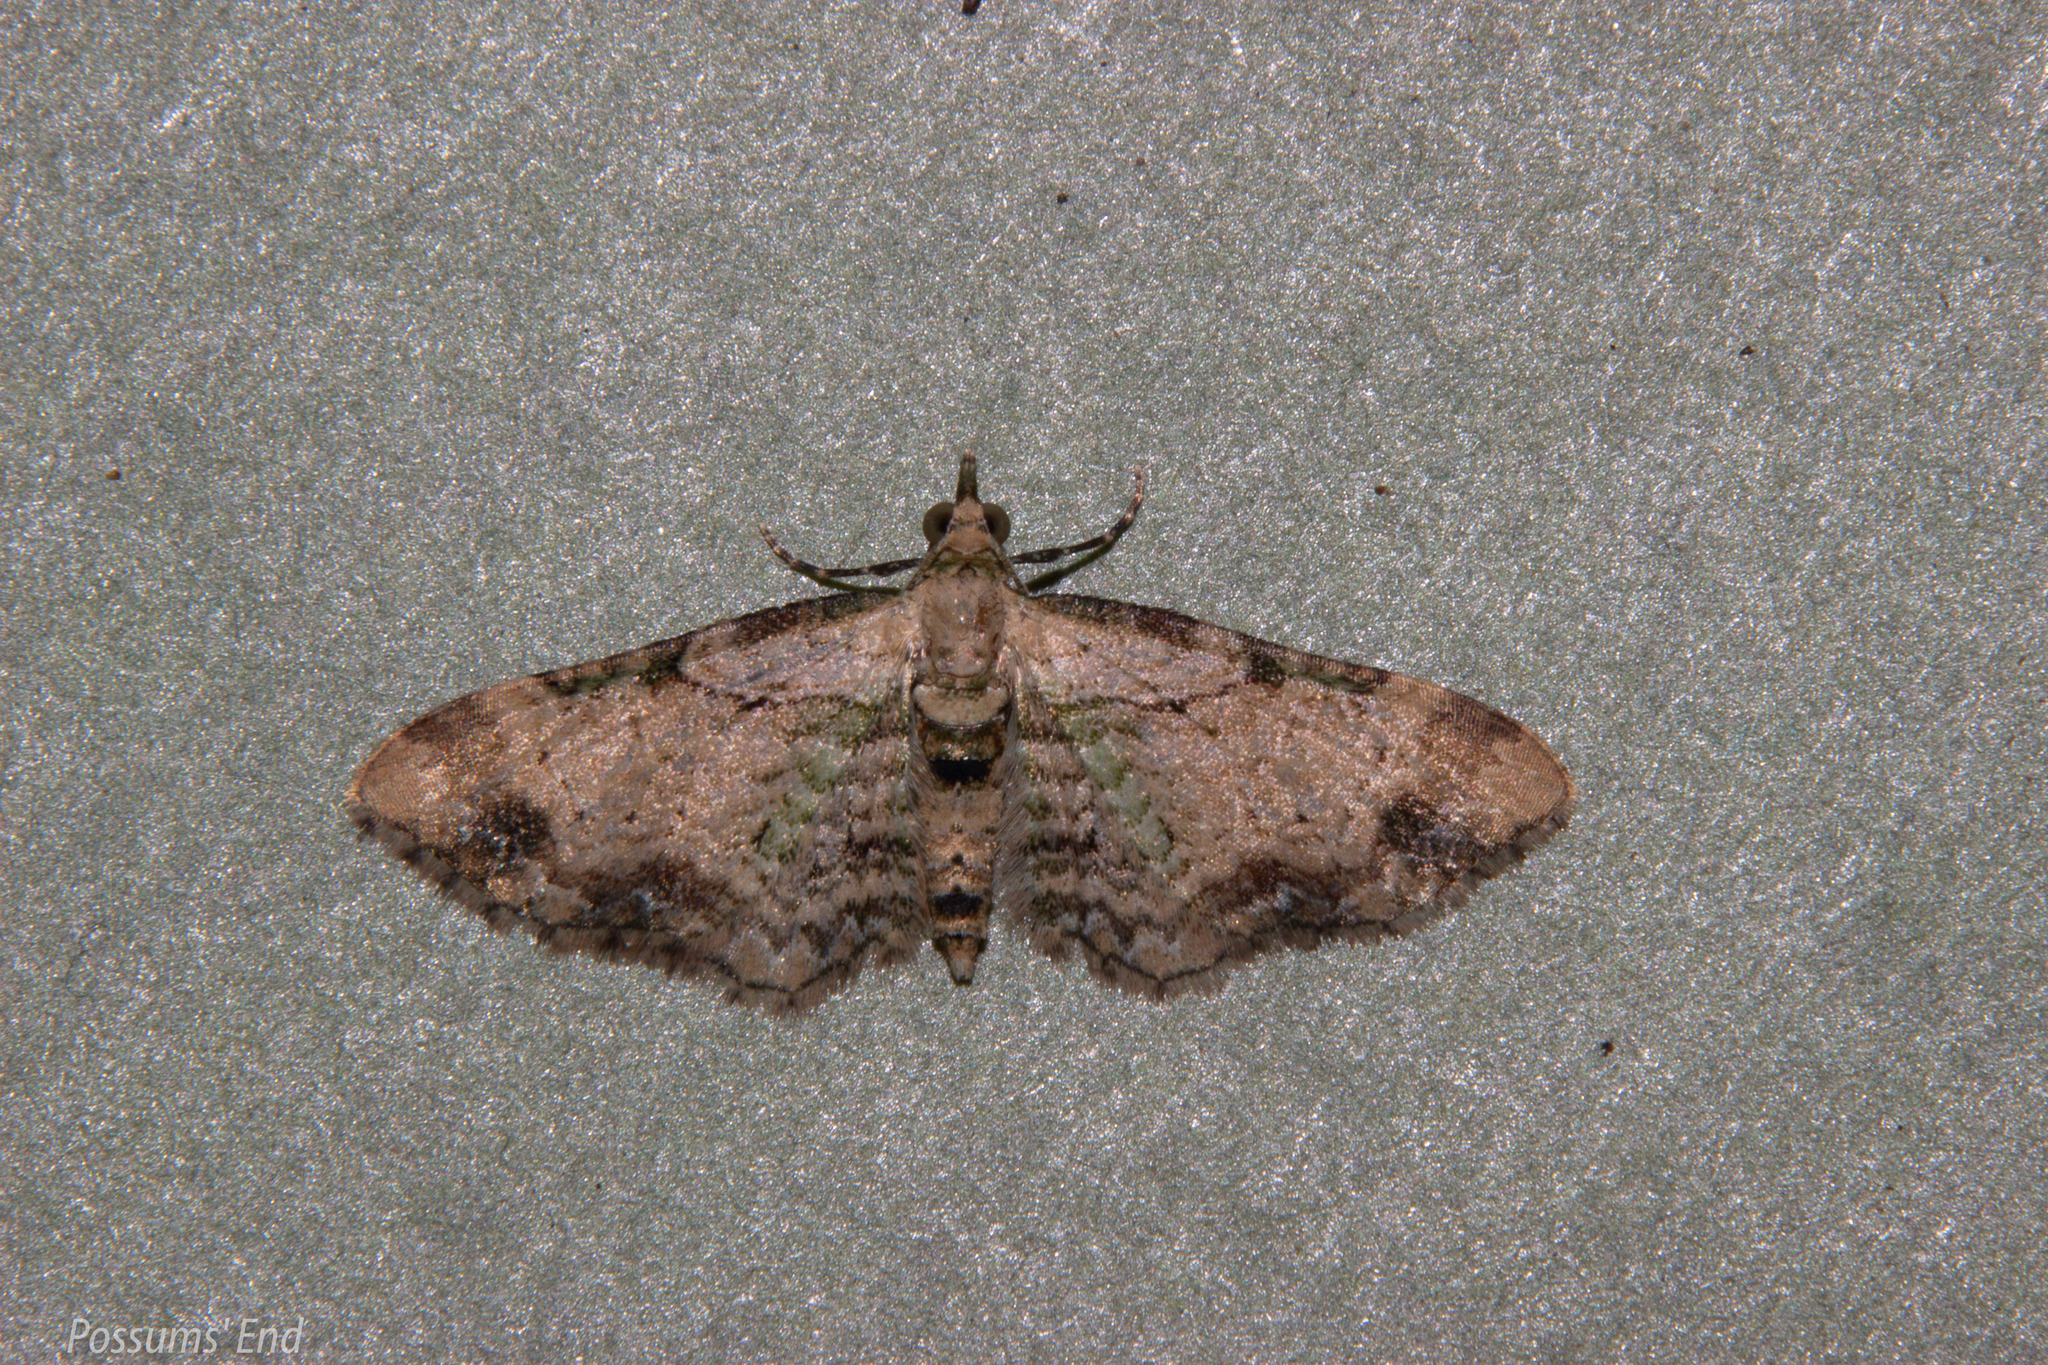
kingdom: Animalia
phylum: Arthropoda
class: Insecta
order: Lepidoptera
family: Geometridae
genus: Chloroclystis
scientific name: Chloroclystis
